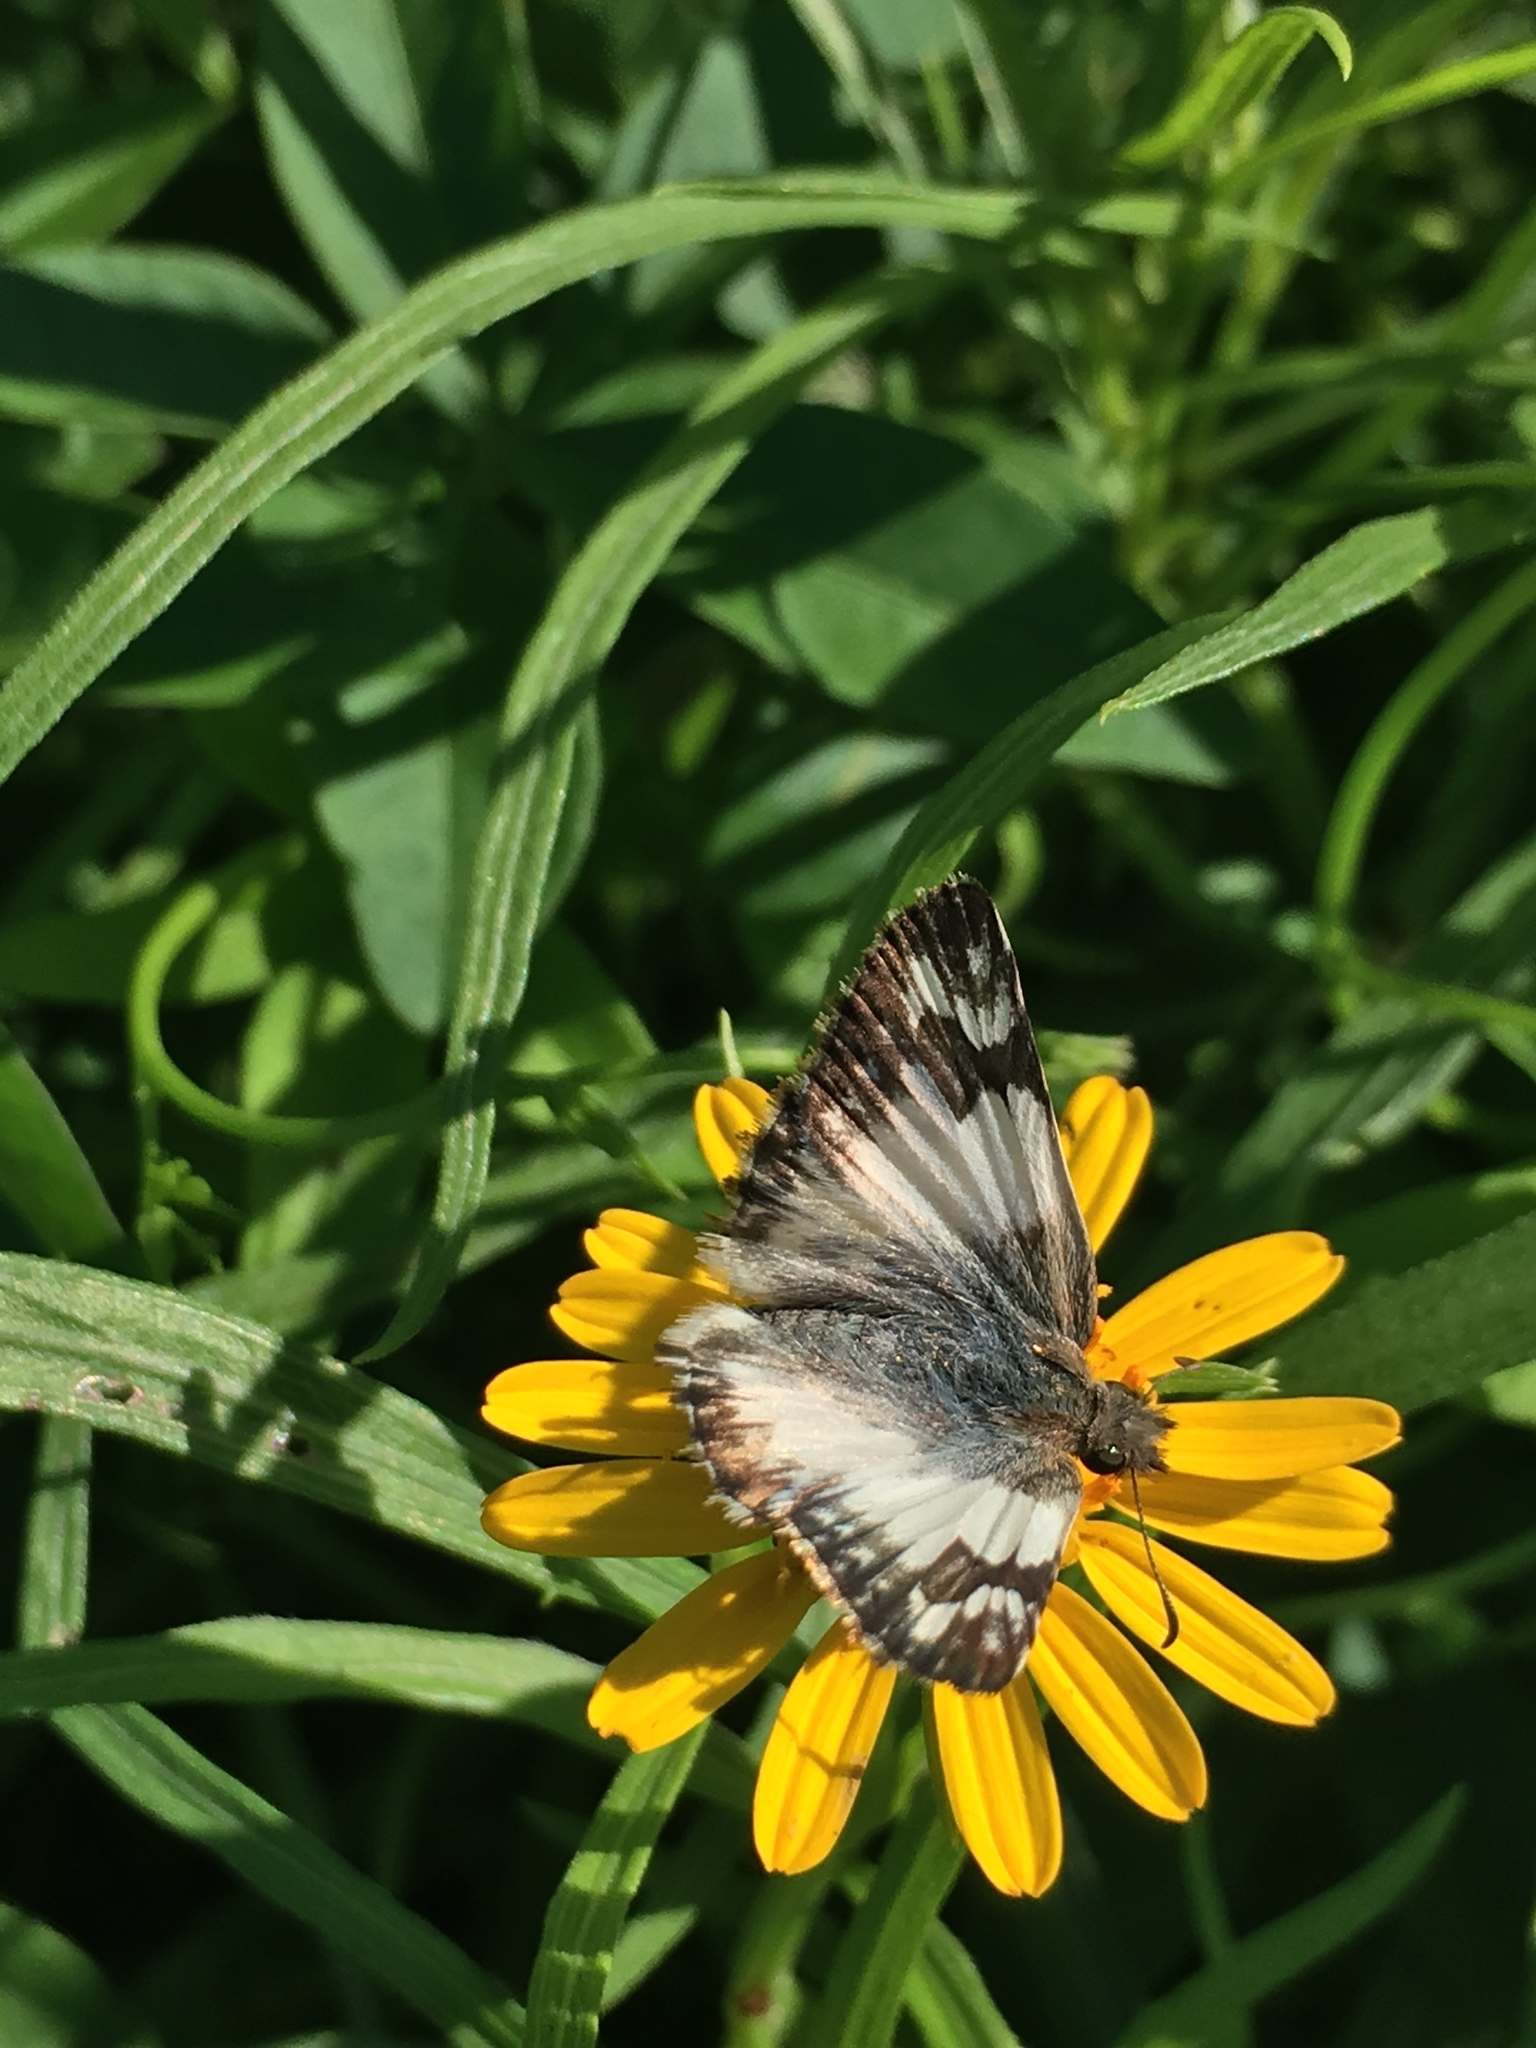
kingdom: Animalia
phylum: Arthropoda
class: Insecta
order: Lepidoptera
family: Hesperiidae
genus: Heliopetes
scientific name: Heliopetes omrina
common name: Stained white-skipper
